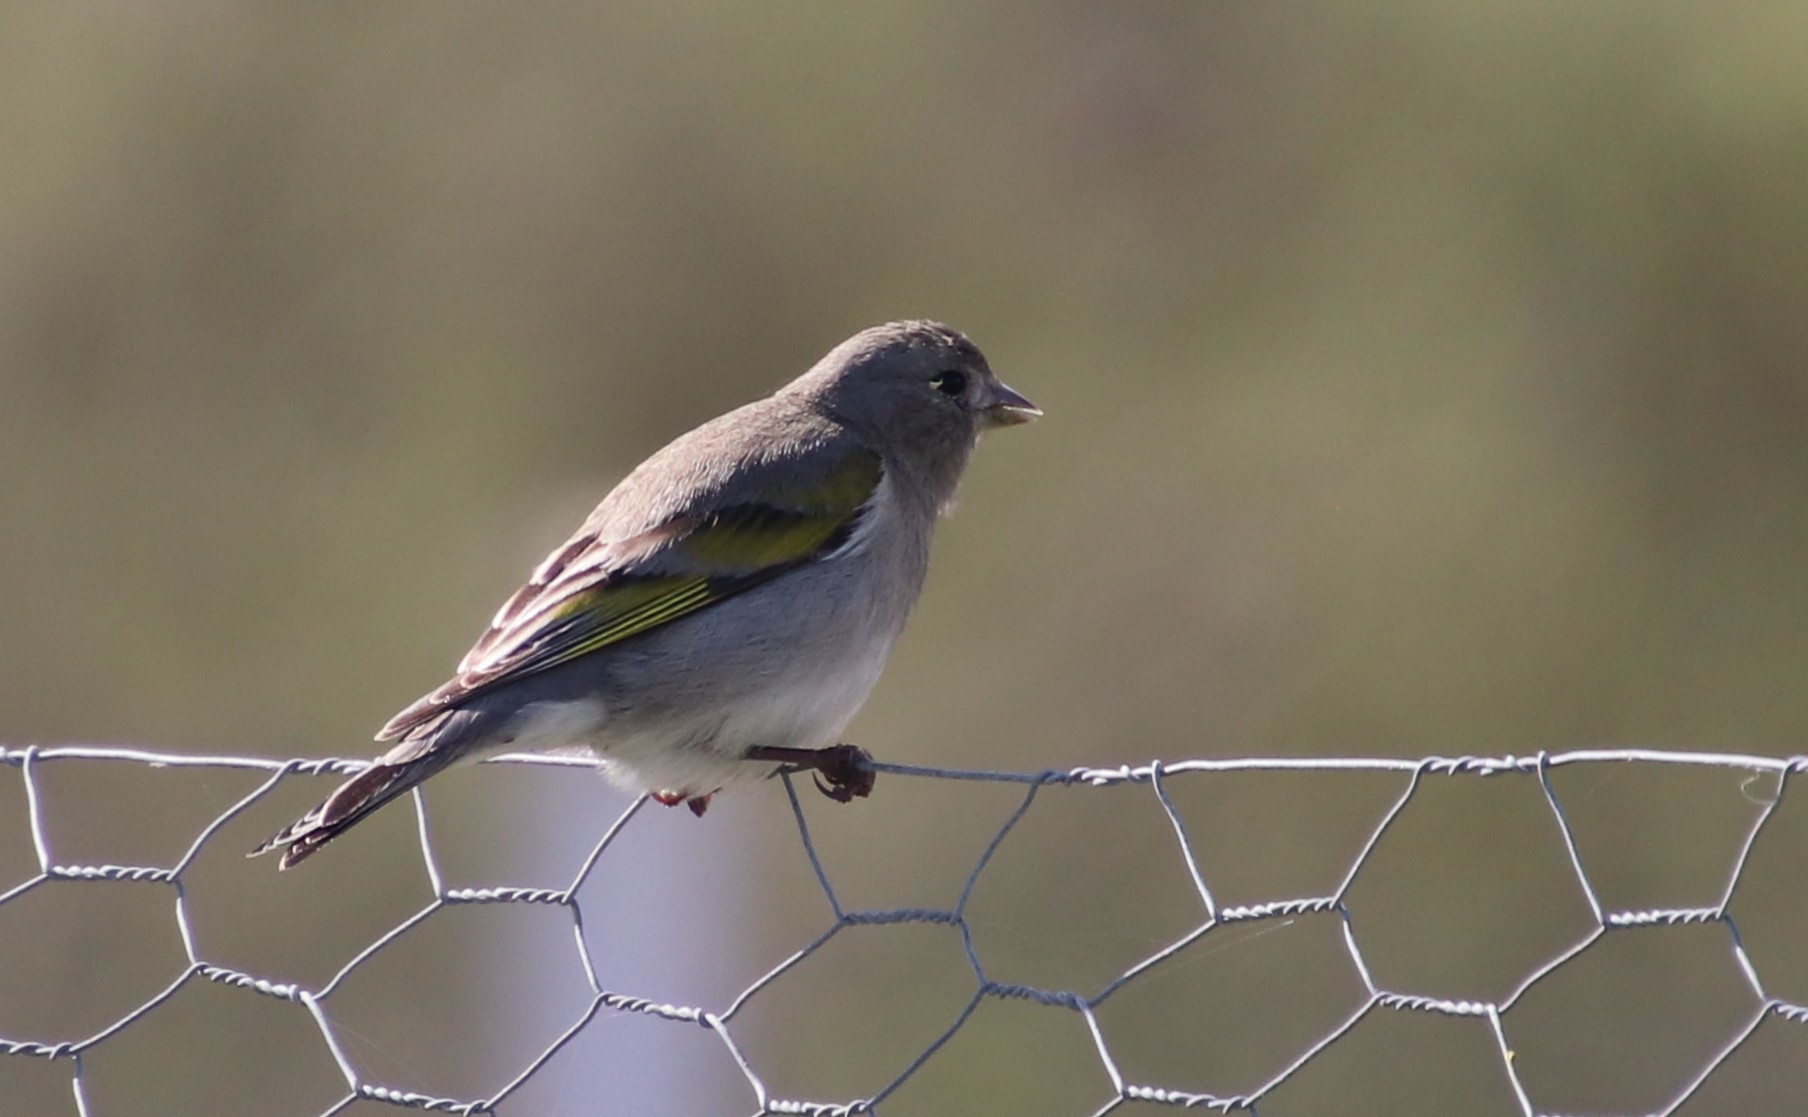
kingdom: Animalia
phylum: Chordata
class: Aves
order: Passeriformes
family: Fringillidae
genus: Spinus
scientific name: Spinus lawrencei
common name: Lawrence's goldfinch
